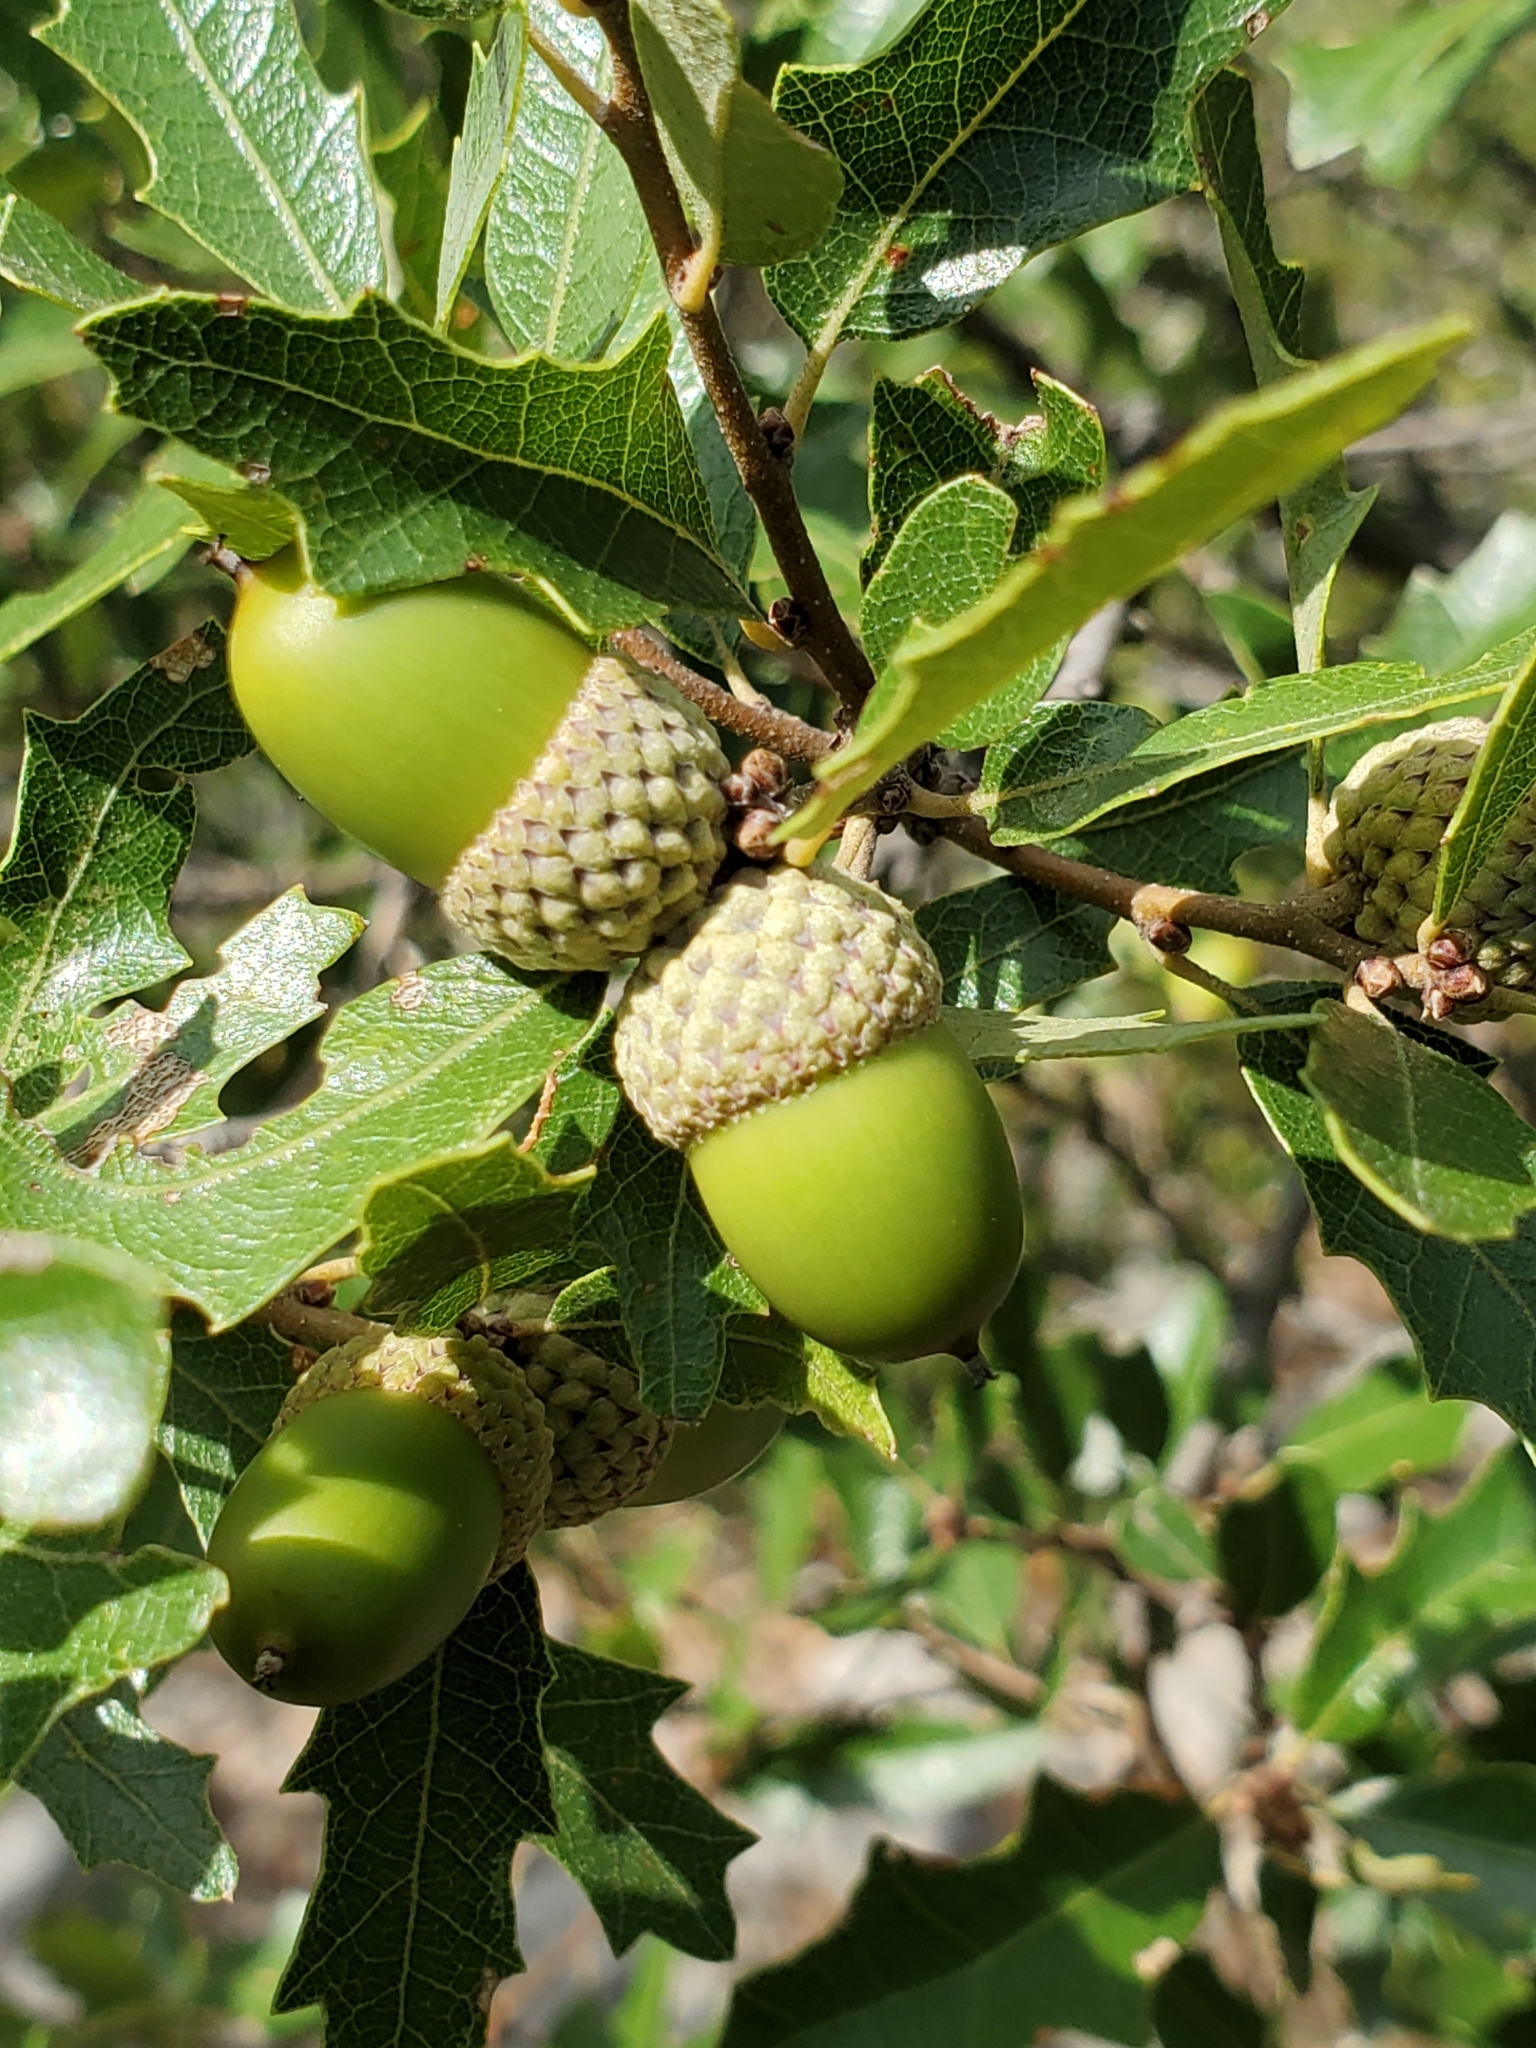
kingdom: Plantae
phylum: Tracheophyta
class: Magnoliopsida
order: Fagales
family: Fagaceae
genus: Quercus
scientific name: Quercus vaseyana
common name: Sandpaper oak
